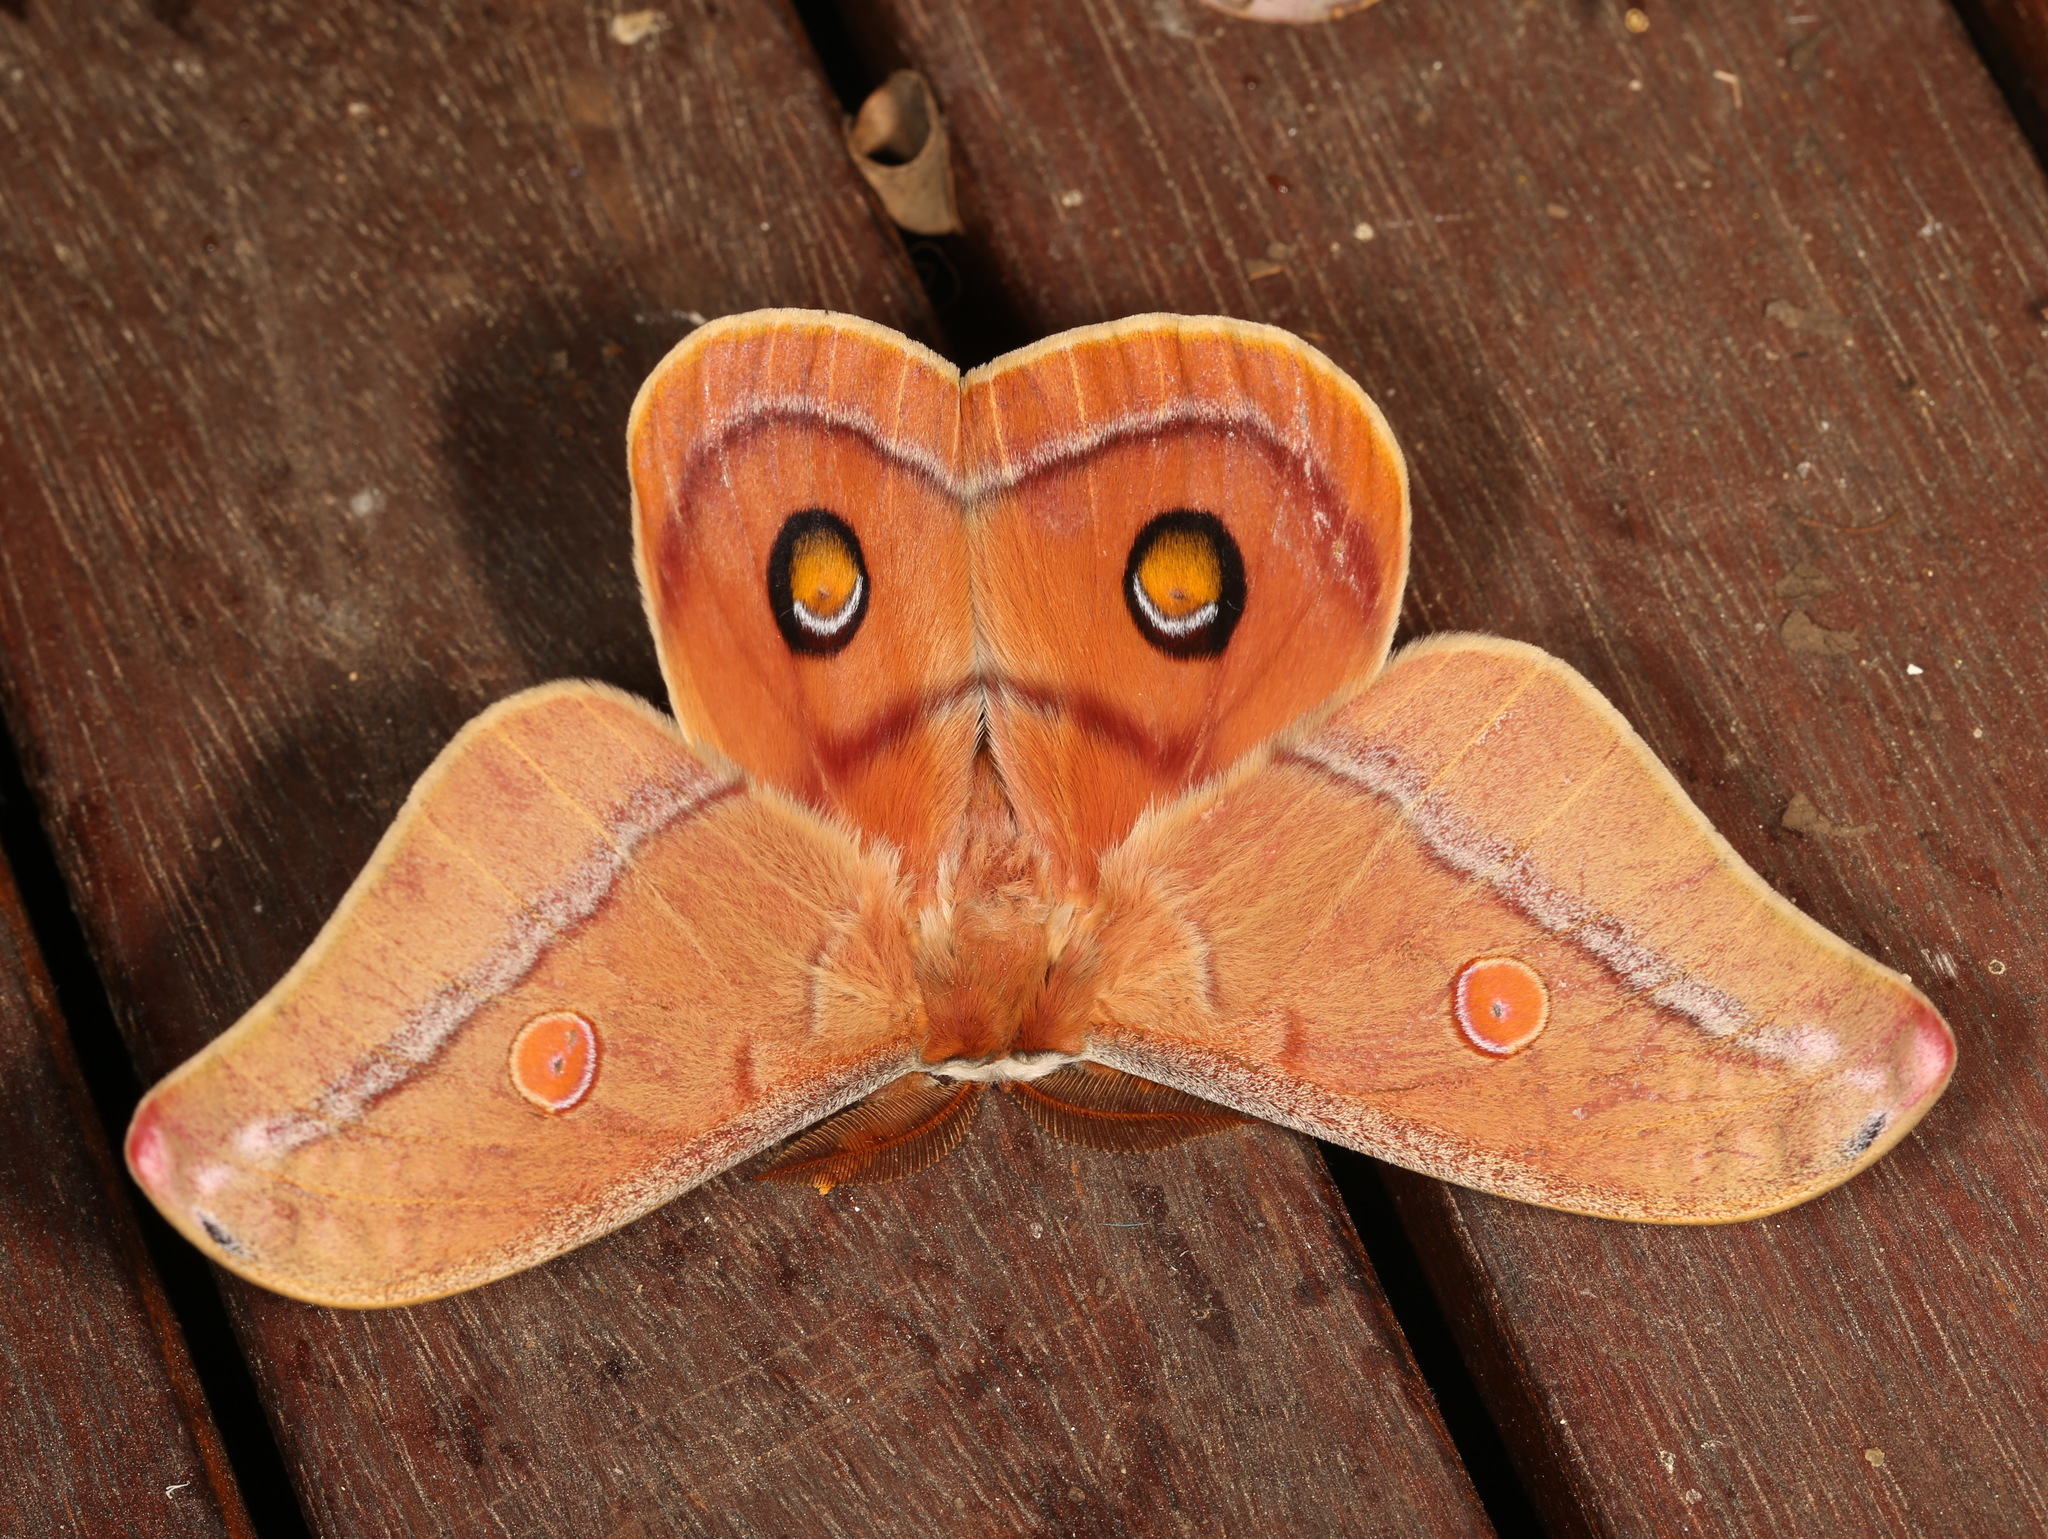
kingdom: Animalia
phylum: Arthropoda
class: Insecta
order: Lepidoptera
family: Saturniidae
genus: Opodiphthera
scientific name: Opodiphthera
